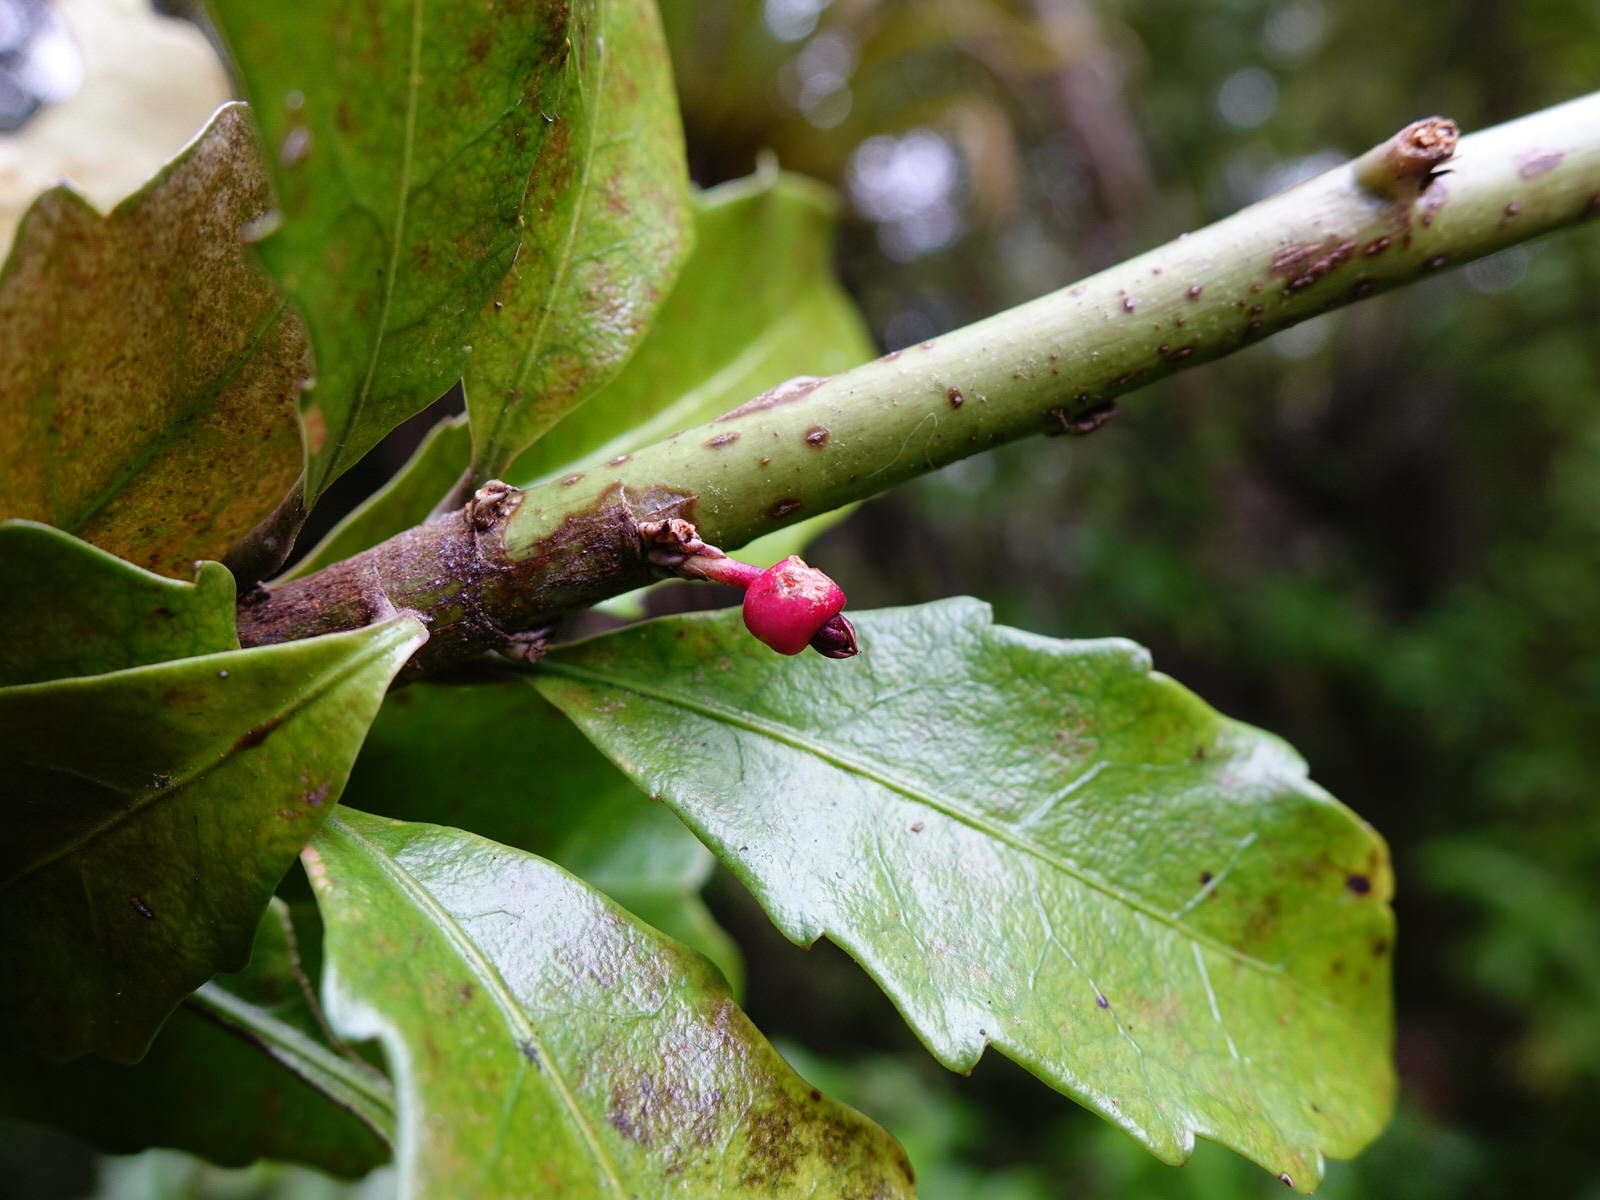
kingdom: Plantae
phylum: Tracheophyta
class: Magnoliopsida
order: Asterales
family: Alseuosmiaceae
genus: Alseuosmia
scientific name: Alseuosmia macrophylla
